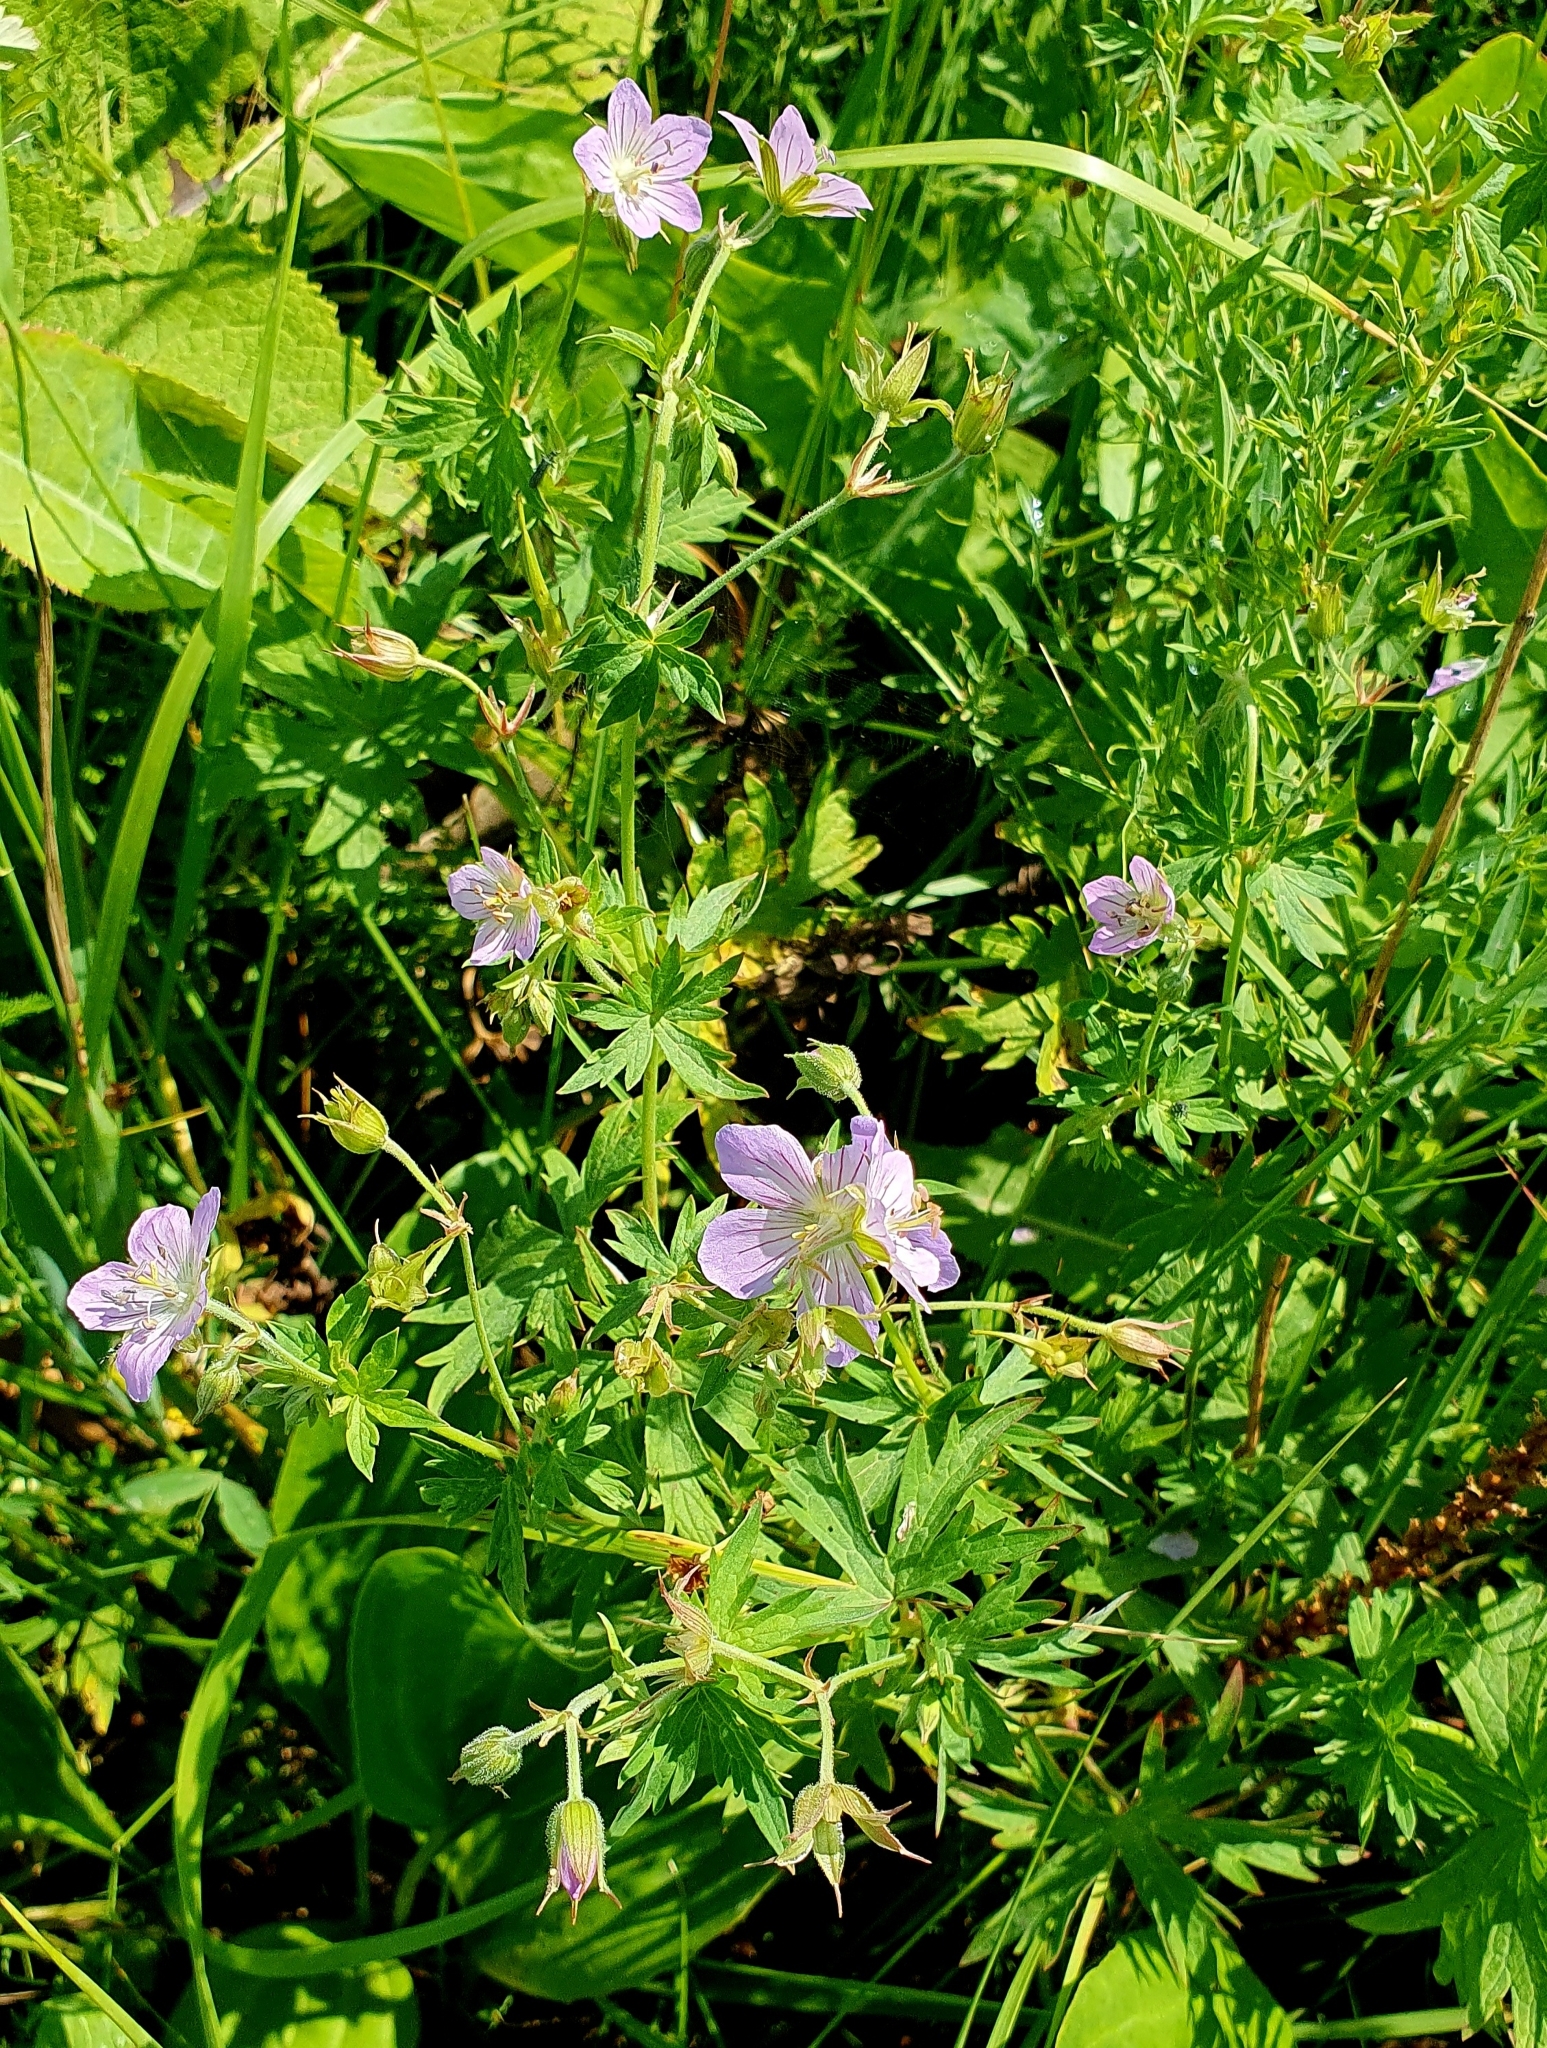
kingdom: Plantae
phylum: Tracheophyta
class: Magnoliopsida
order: Geraniales
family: Geraniaceae
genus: Geranium
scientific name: Geranium collinum
